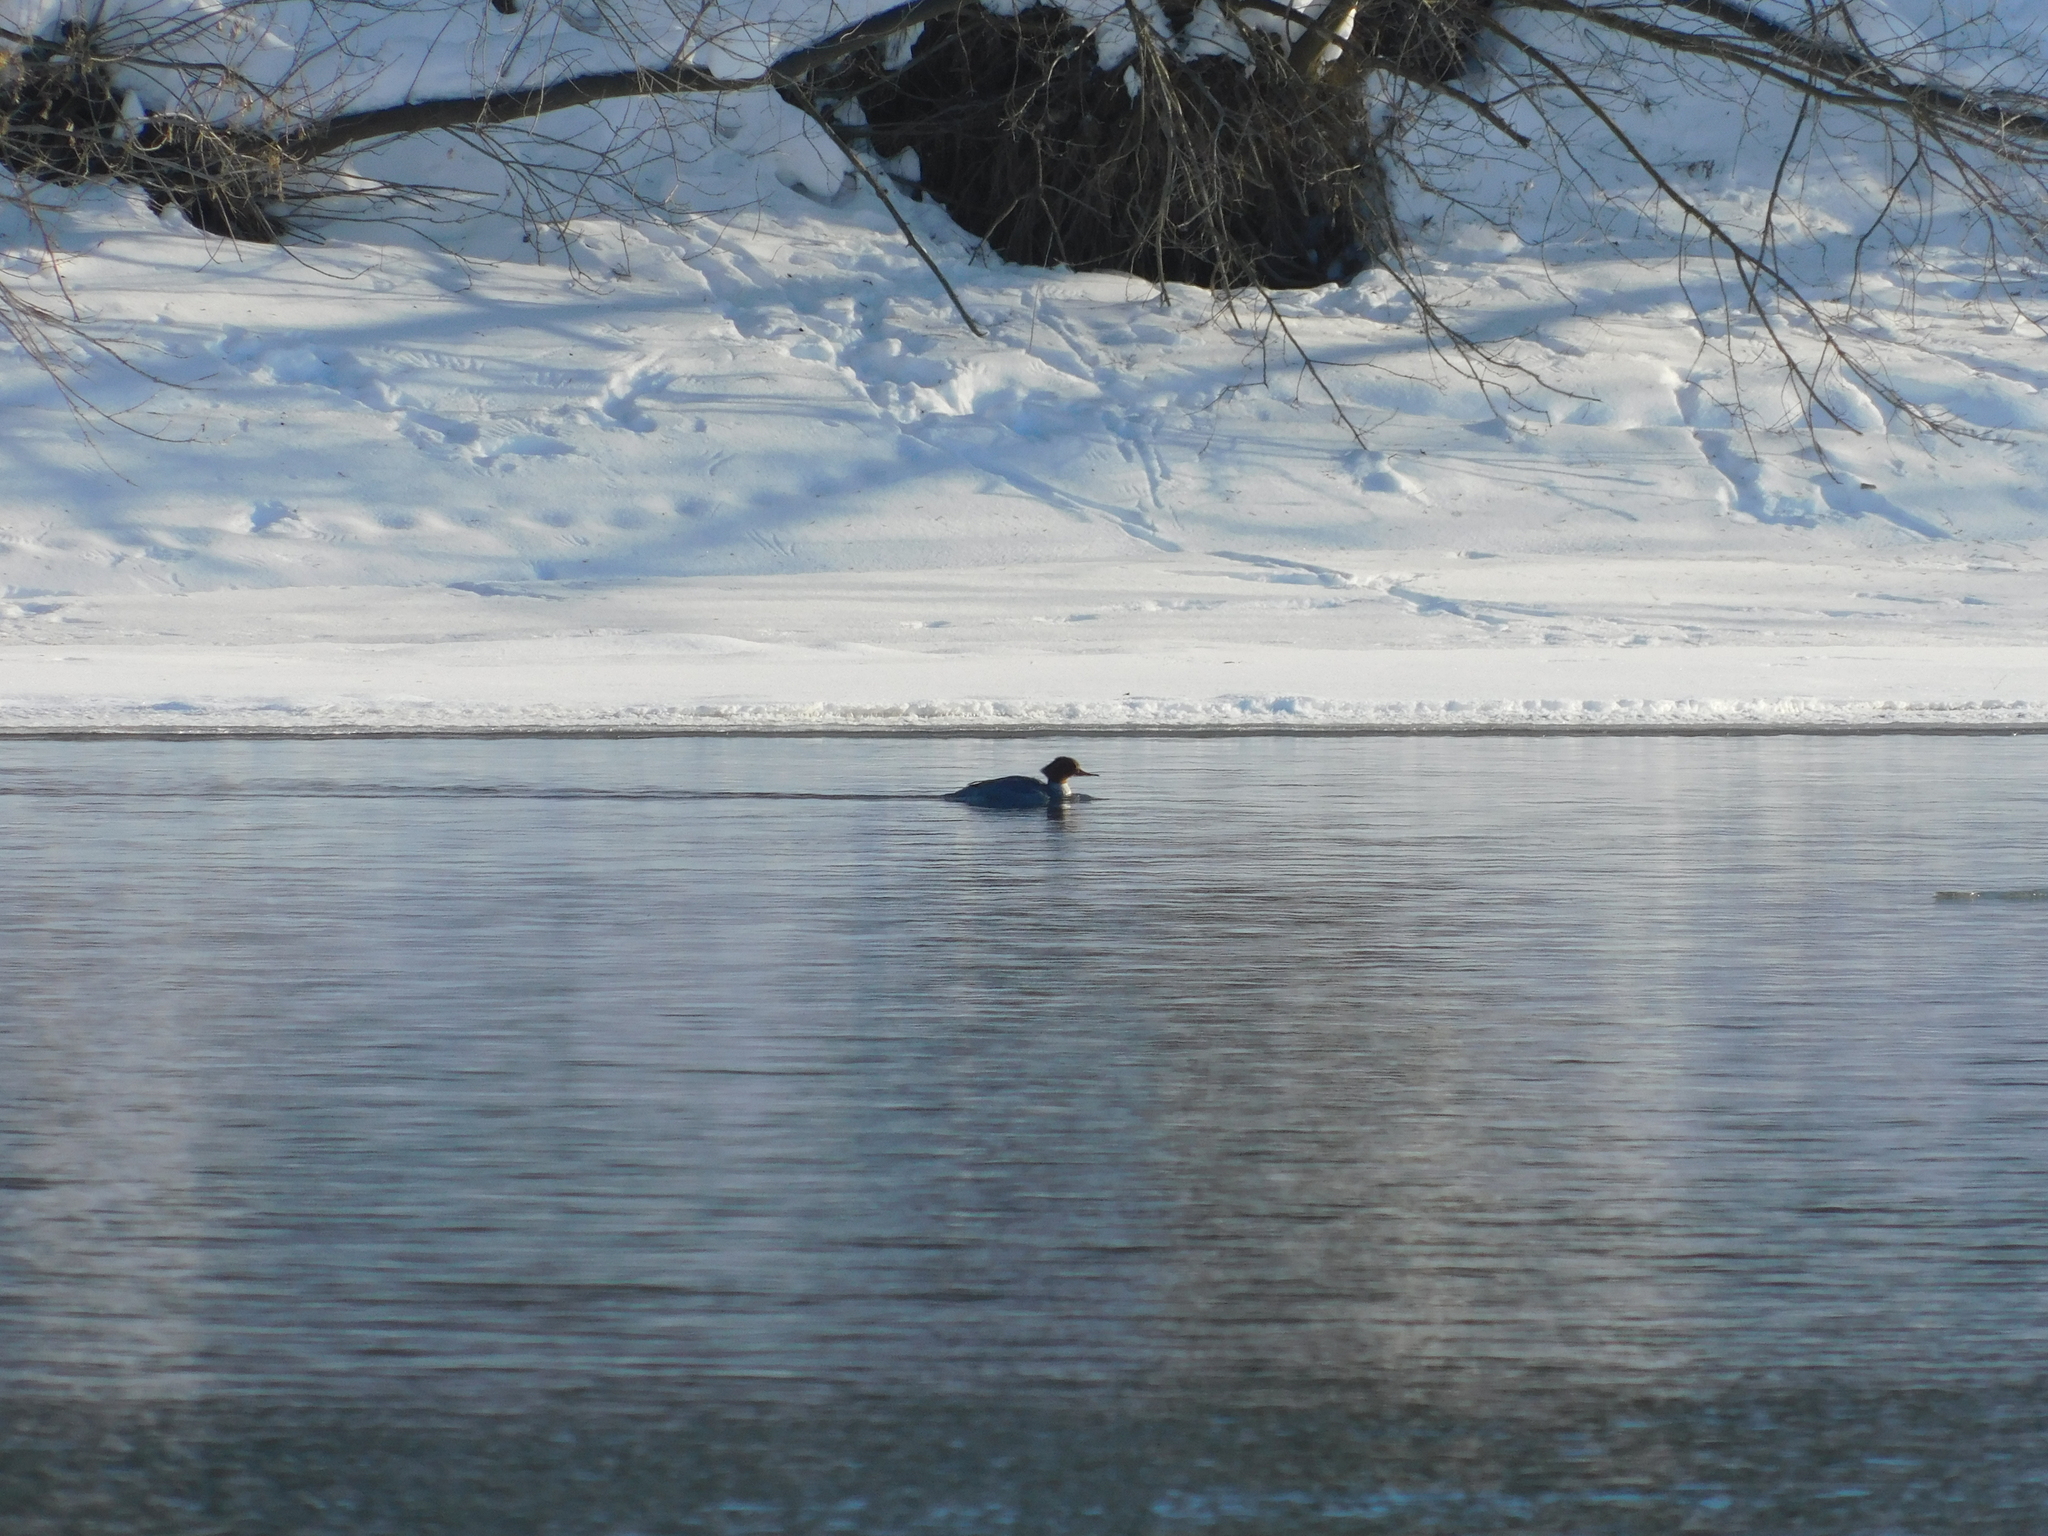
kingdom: Animalia
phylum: Chordata
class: Aves
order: Anseriformes
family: Anatidae
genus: Mergus
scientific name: Mergus merganser
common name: Common merganser
